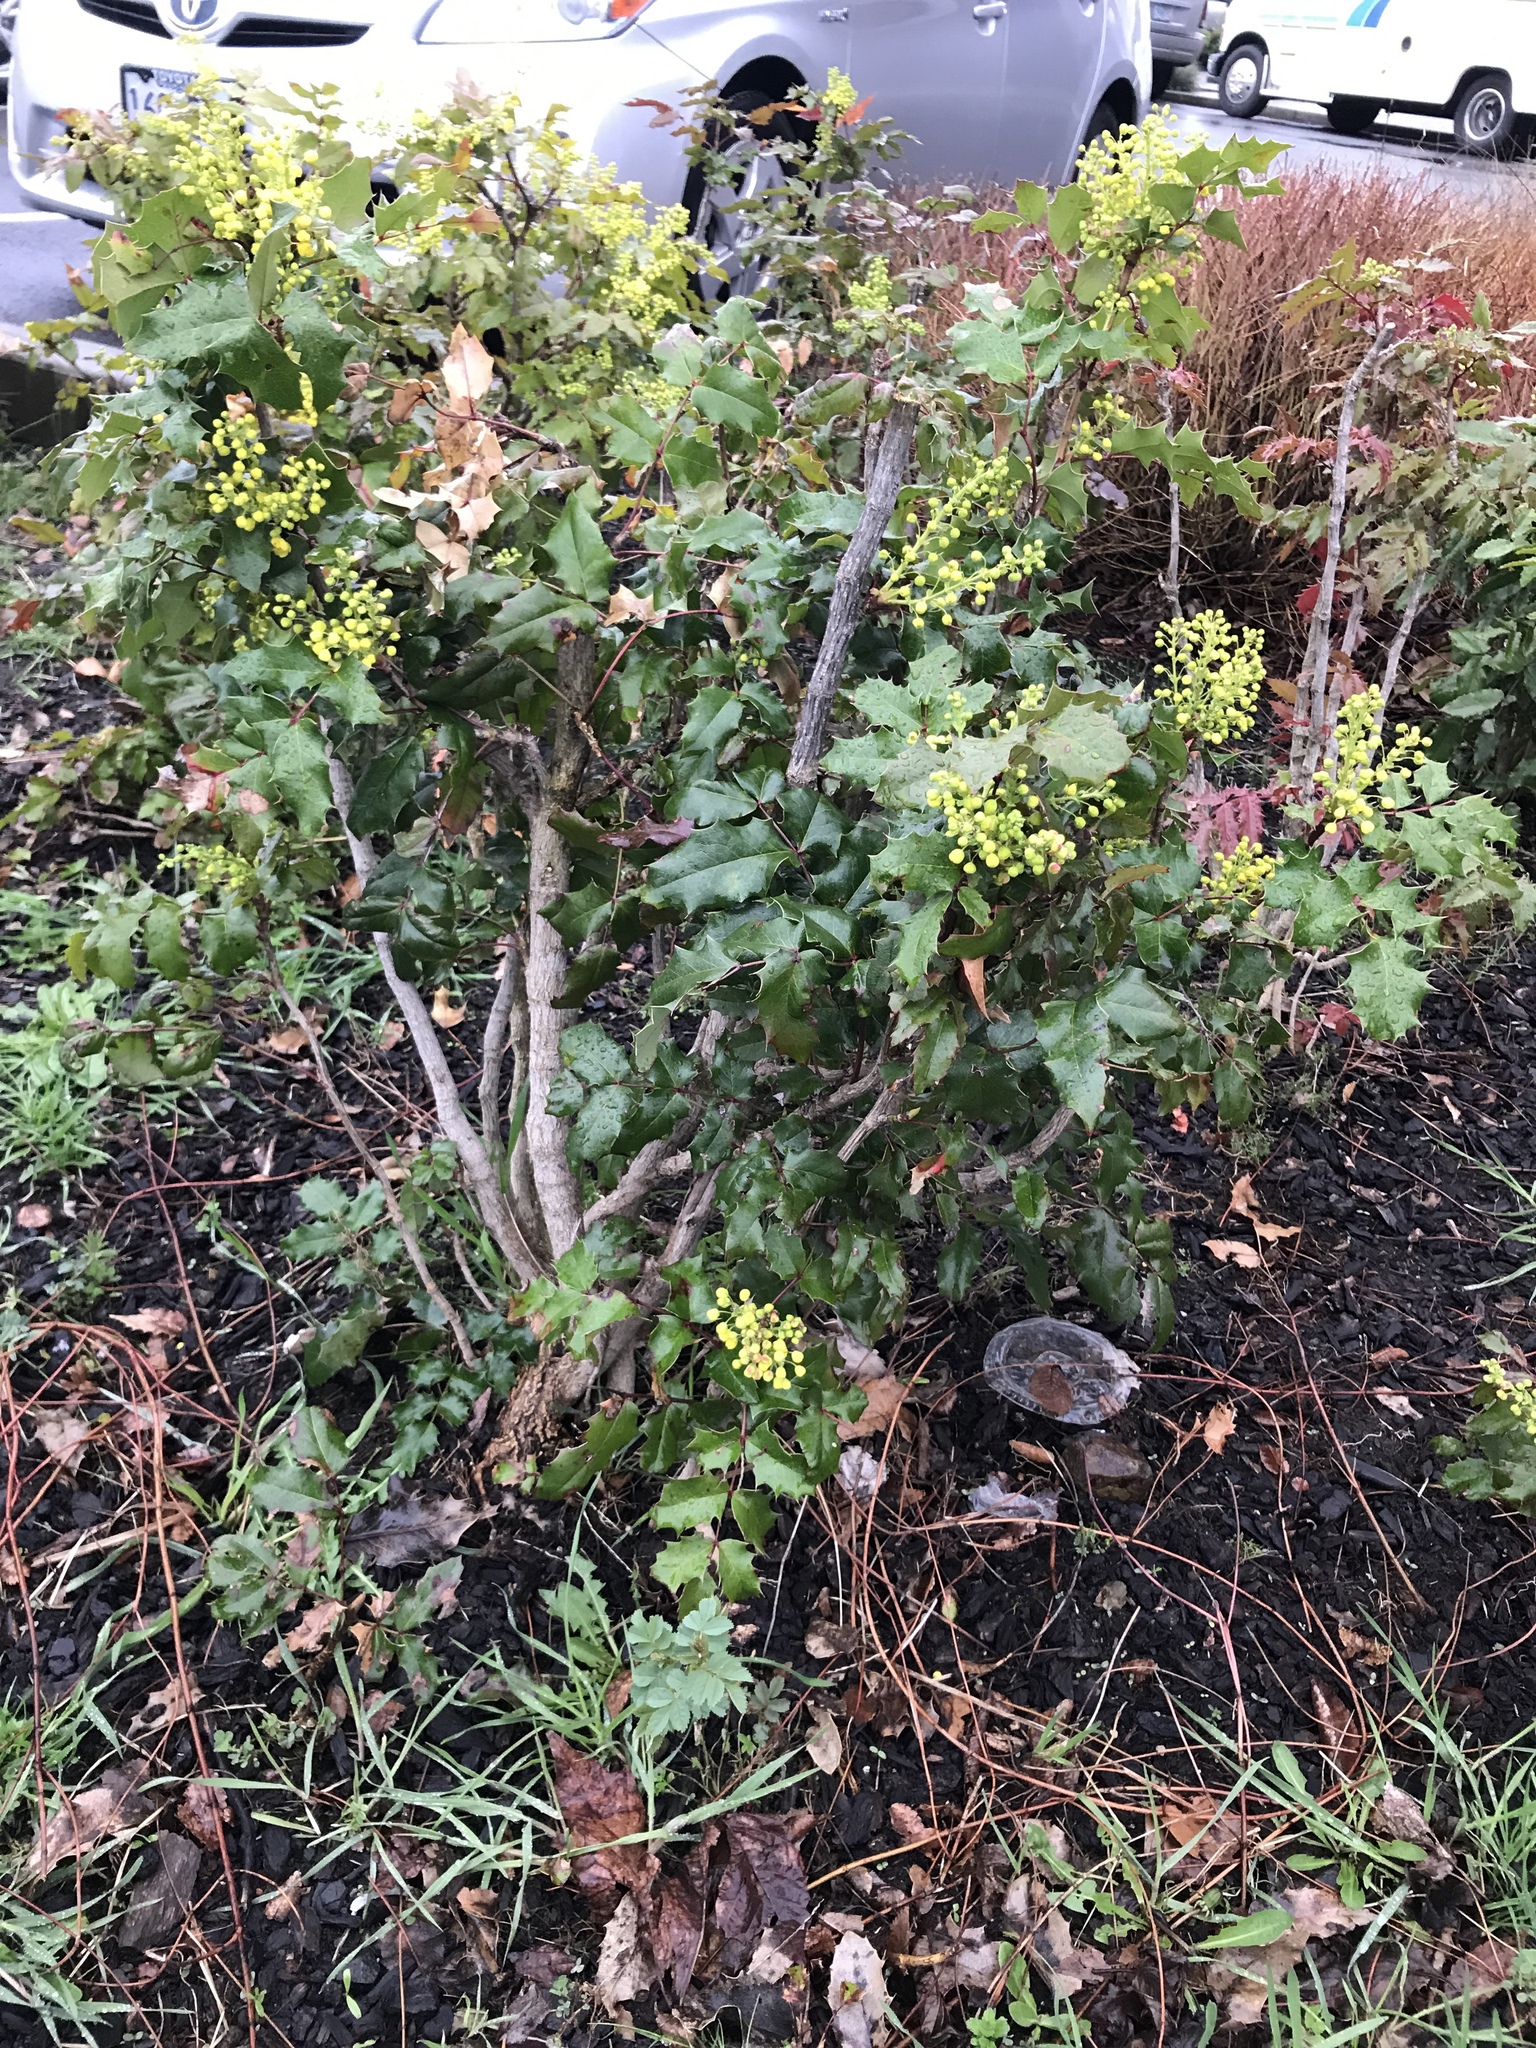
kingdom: Plantae
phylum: Tracheophyta
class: Magnoliopsida
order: Ranunculales
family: Berberidaceae
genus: Mahonia
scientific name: Mahonia aquifolium
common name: Oregon-grape
